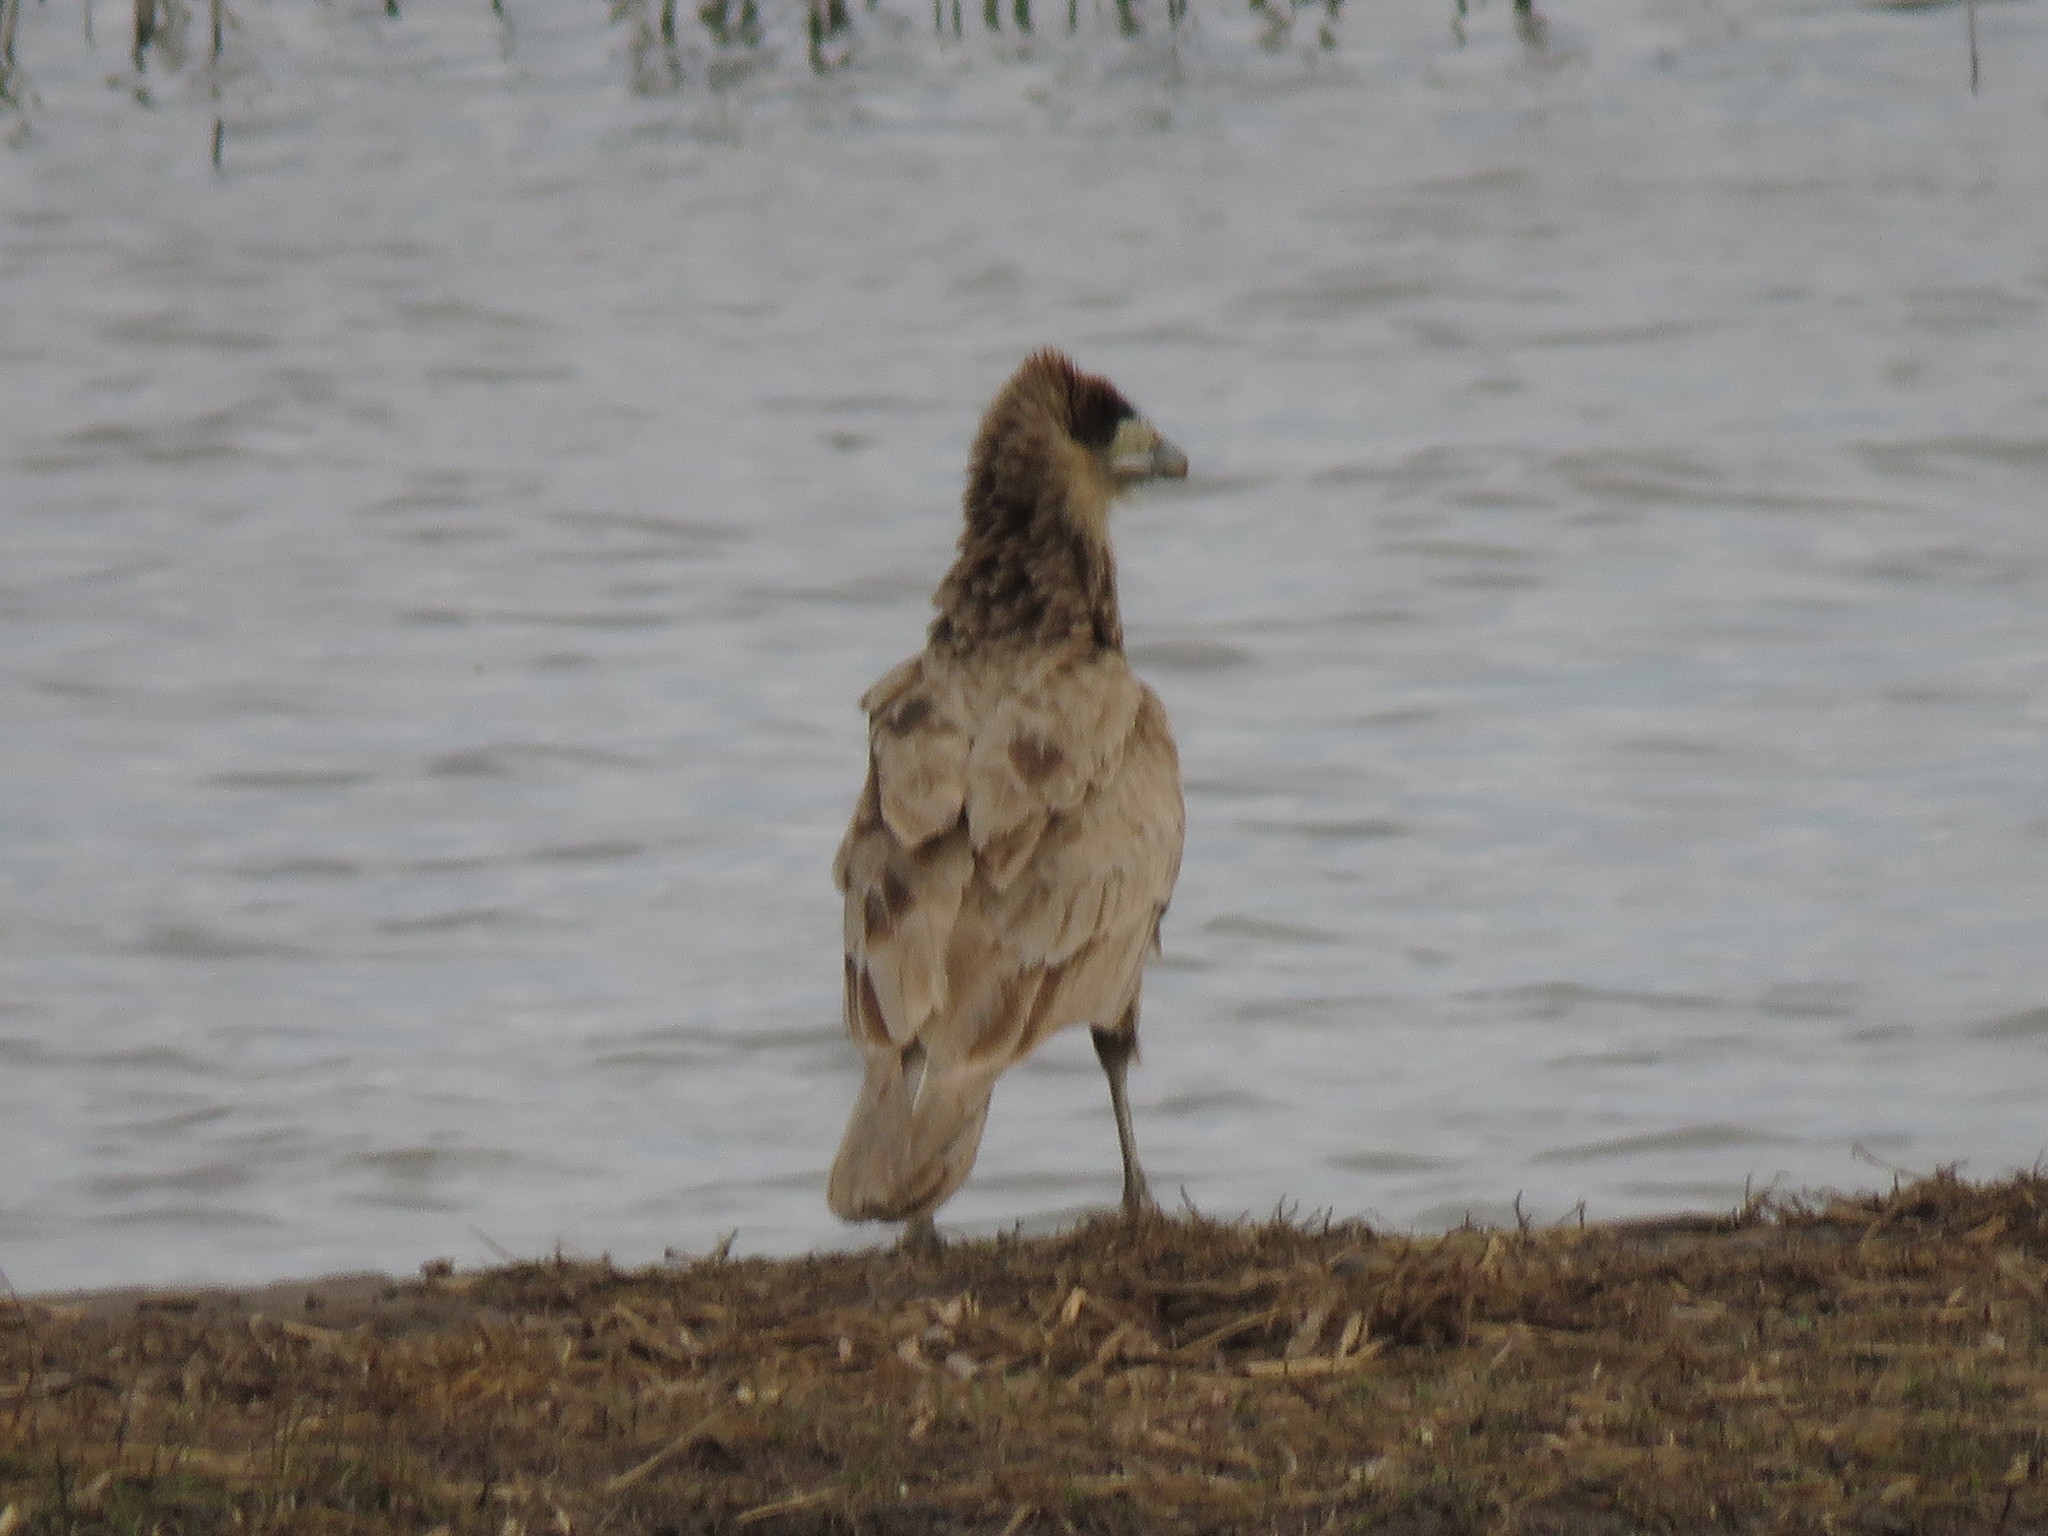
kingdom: Animalia
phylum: Chordata
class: Aves
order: Falconiformes
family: Falconidae
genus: Caracara
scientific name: Caracara plancus
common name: Southern caracara
